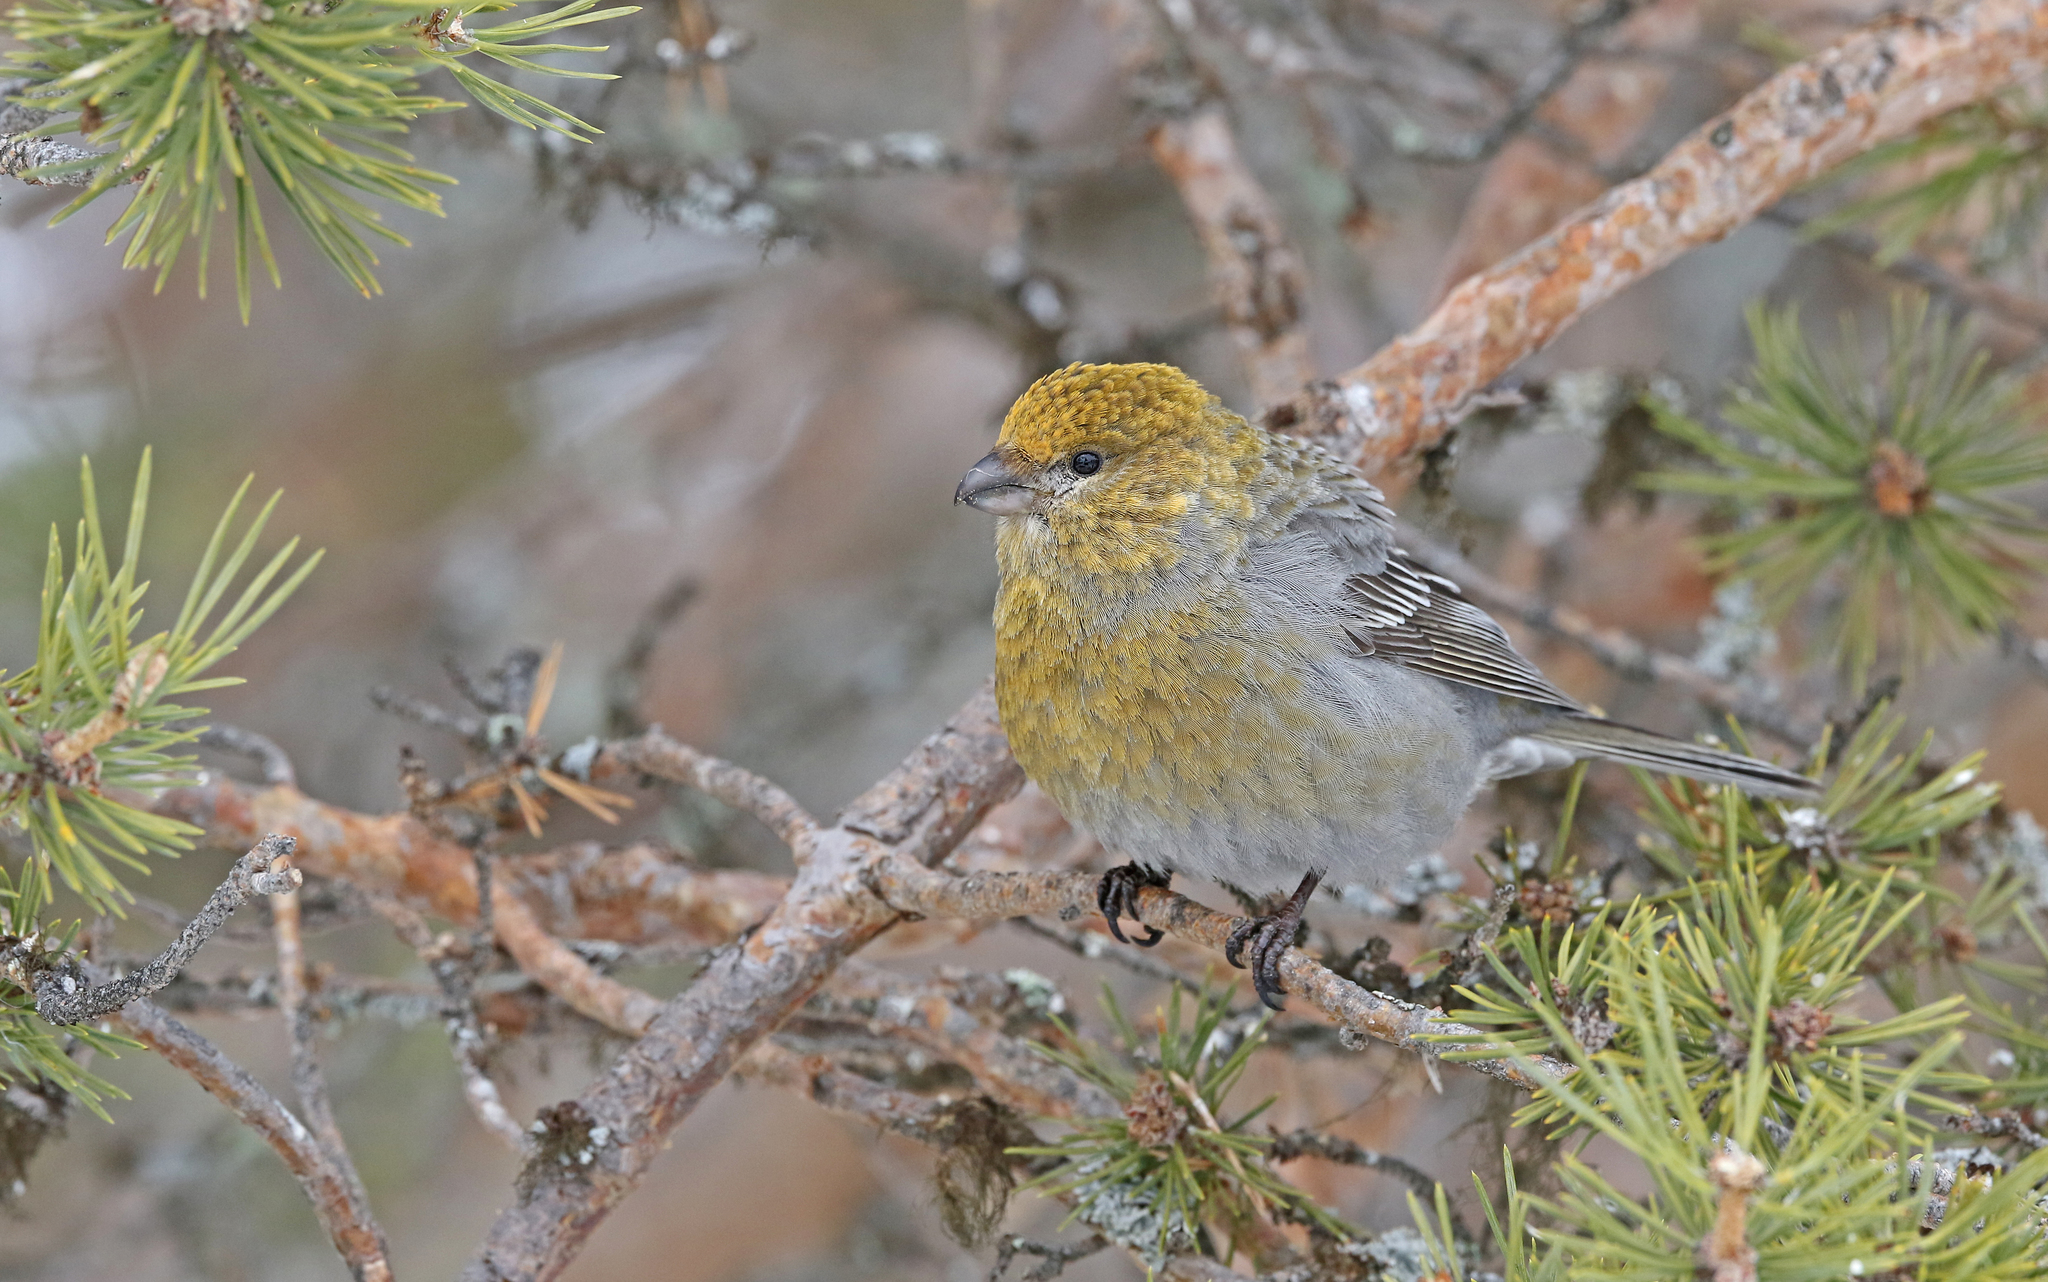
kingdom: Animalia
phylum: Chordata
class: Aves
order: Passeriformes
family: Fringillidae
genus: Pinicola
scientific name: Pinicola enucleator
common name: Pine grosbeak
